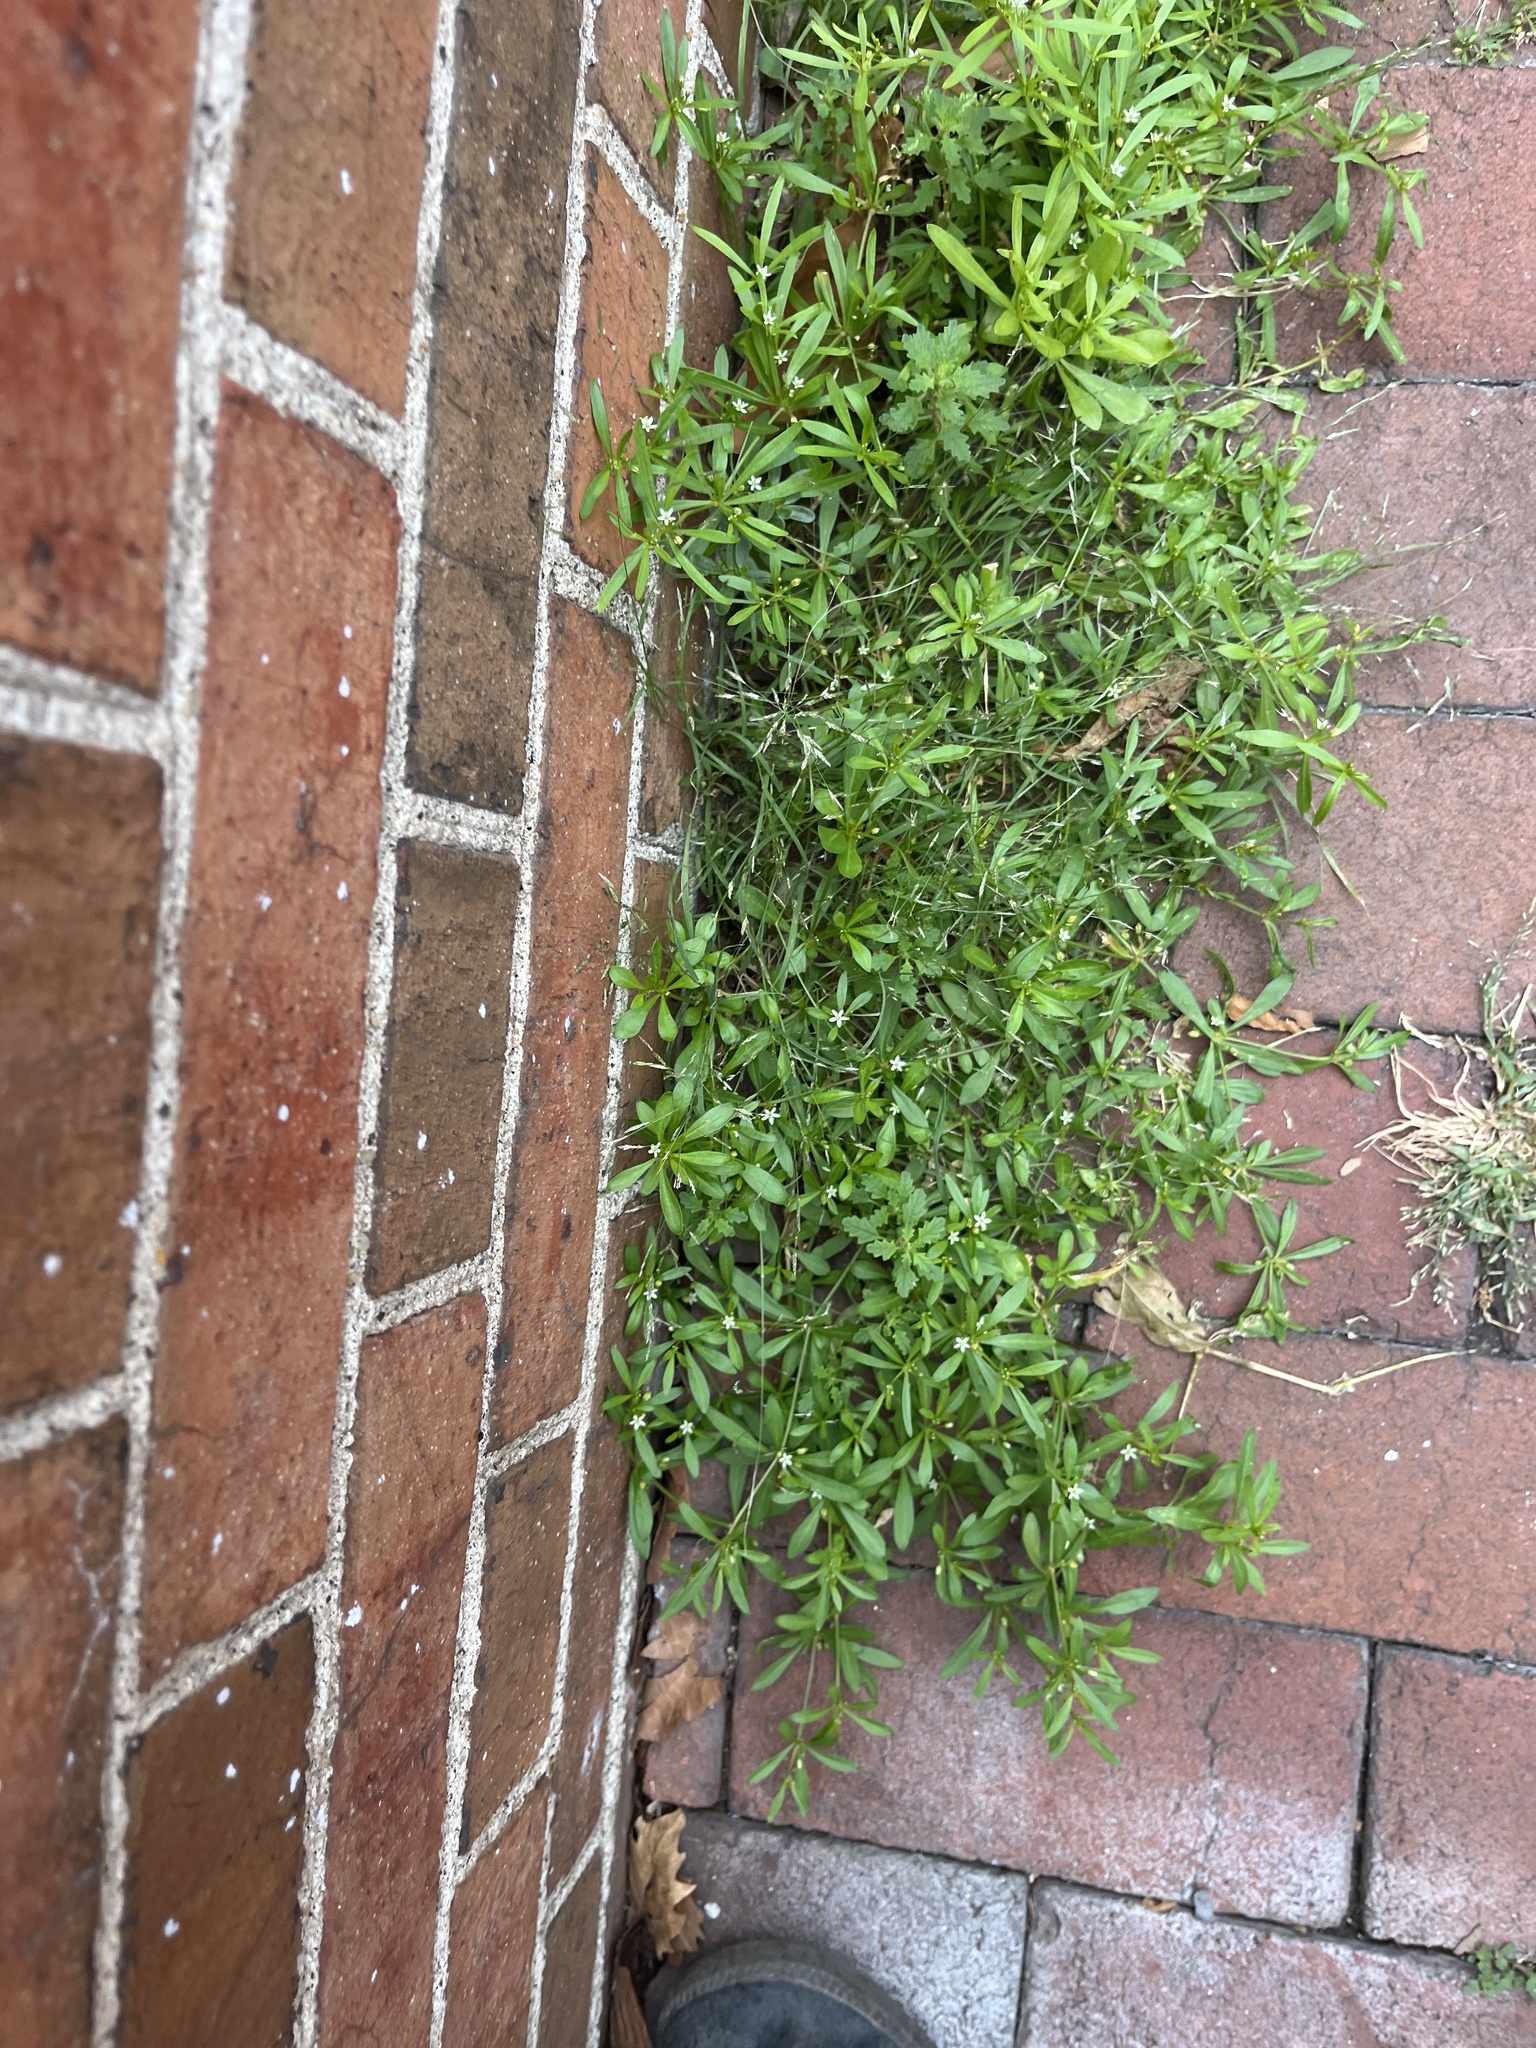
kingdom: Plantae
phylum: Tracheophyta
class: Magnoliopsida
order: Caryophyllales
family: Molluginaceae
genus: Mollugo
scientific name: Mollugo verticillata
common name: Green carpetweed
